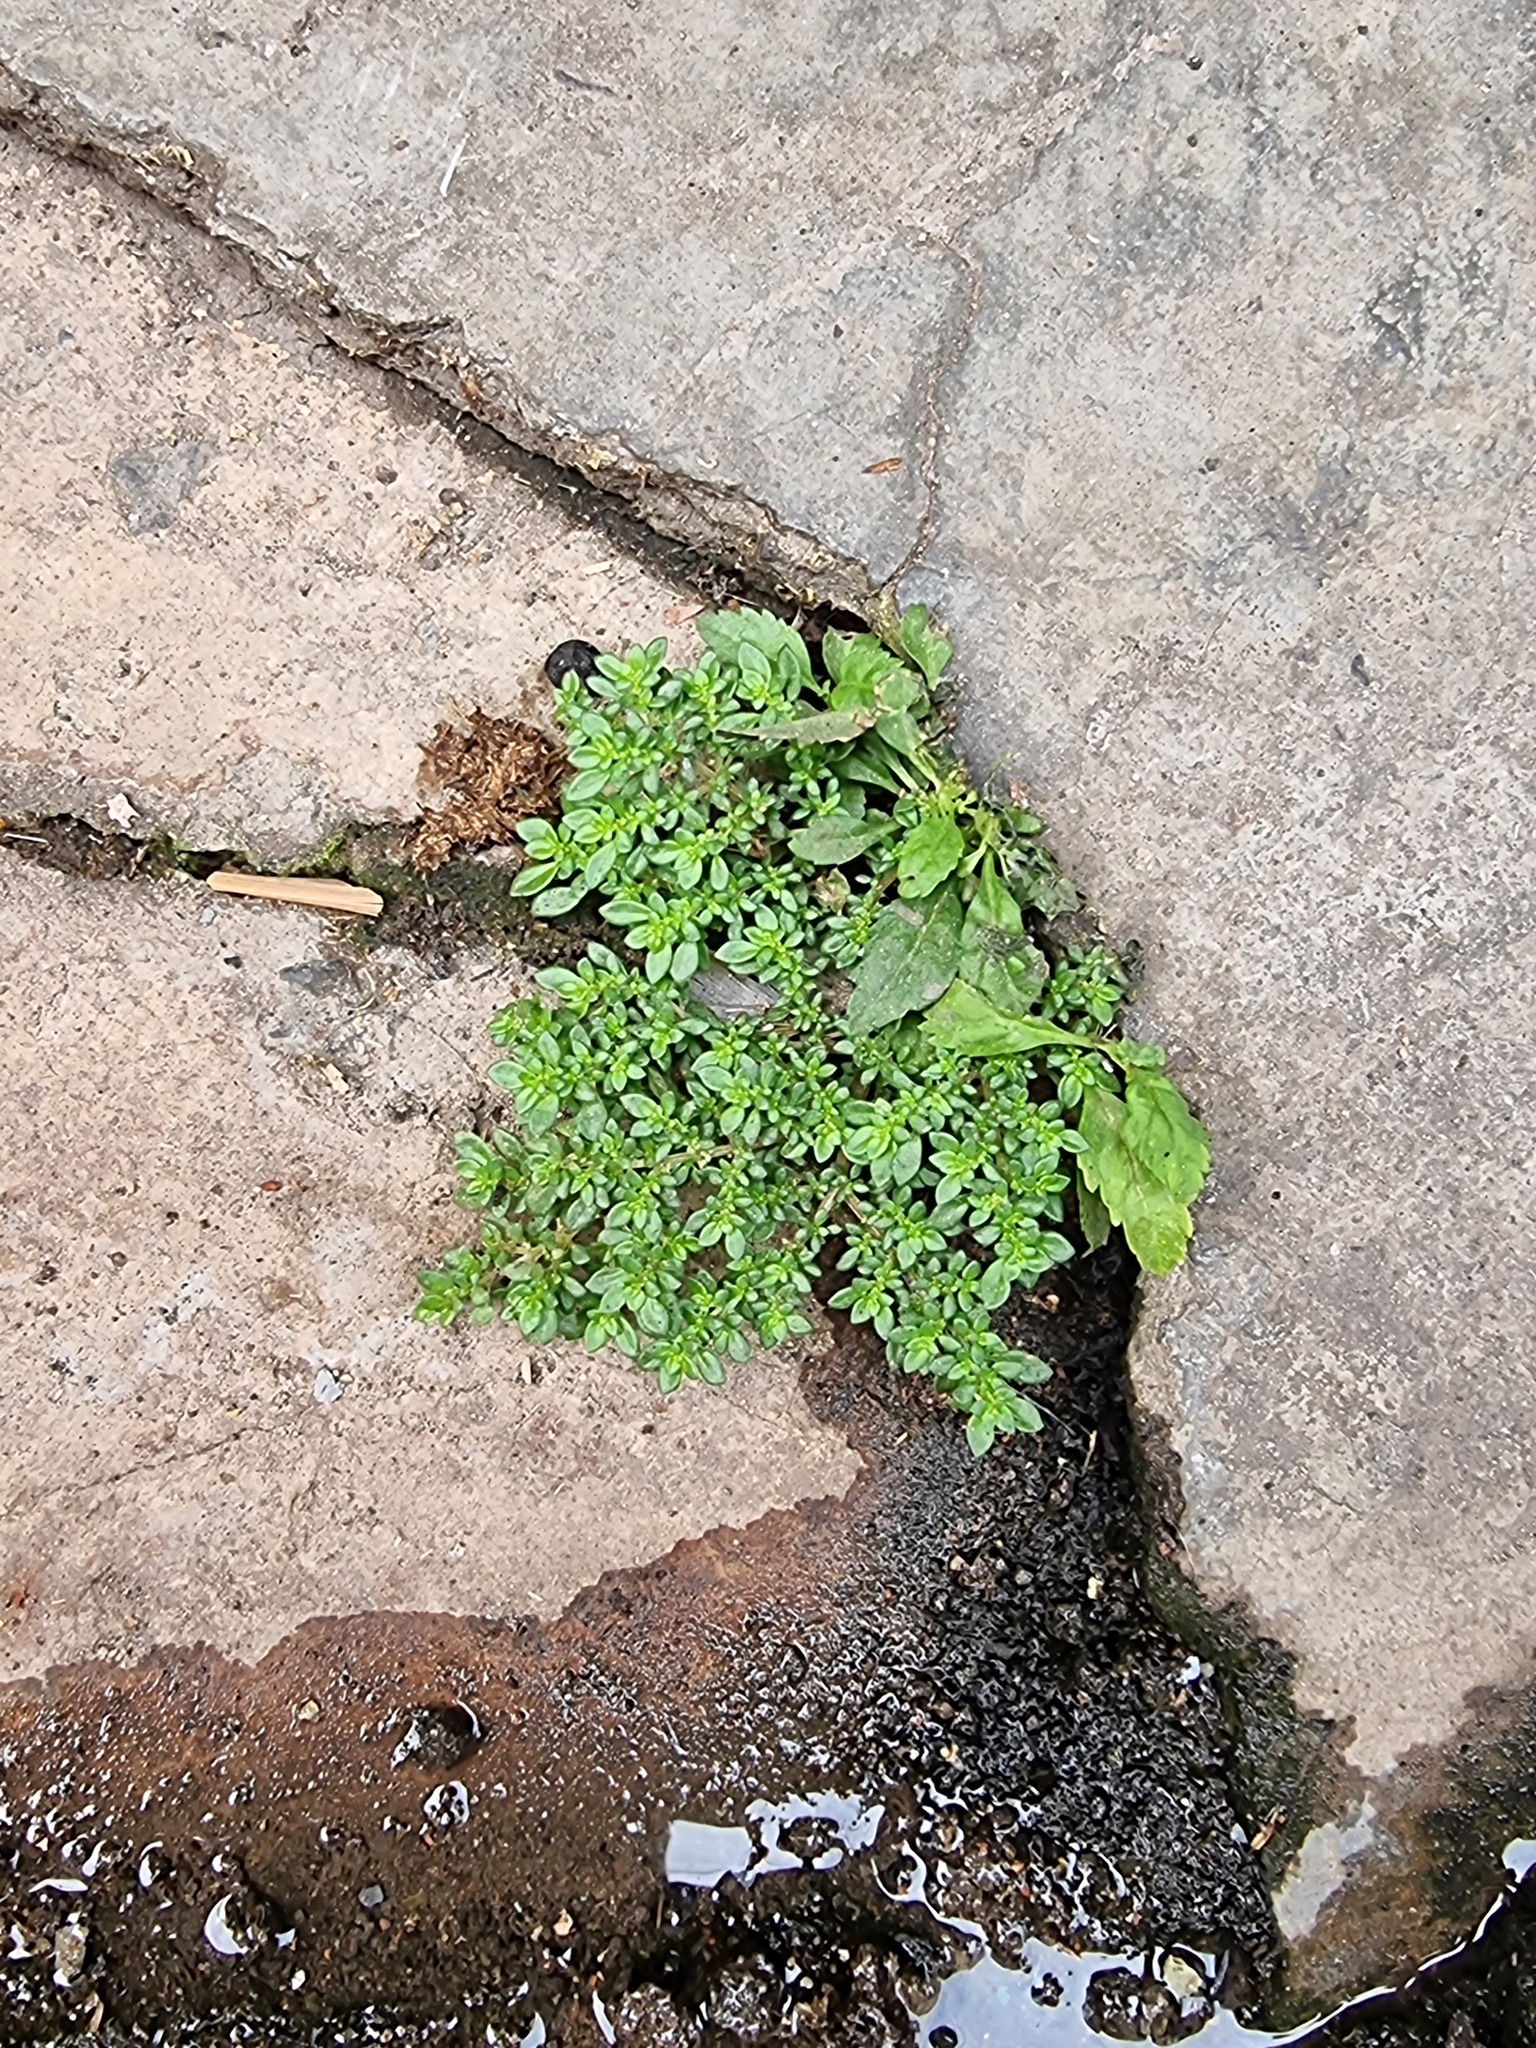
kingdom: Plantae
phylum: Tracheophyta
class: Magnoliopsida
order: Rosales
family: Urticaceae
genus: Pilea
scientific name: Pilea microphylla
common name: Artillery-plant
